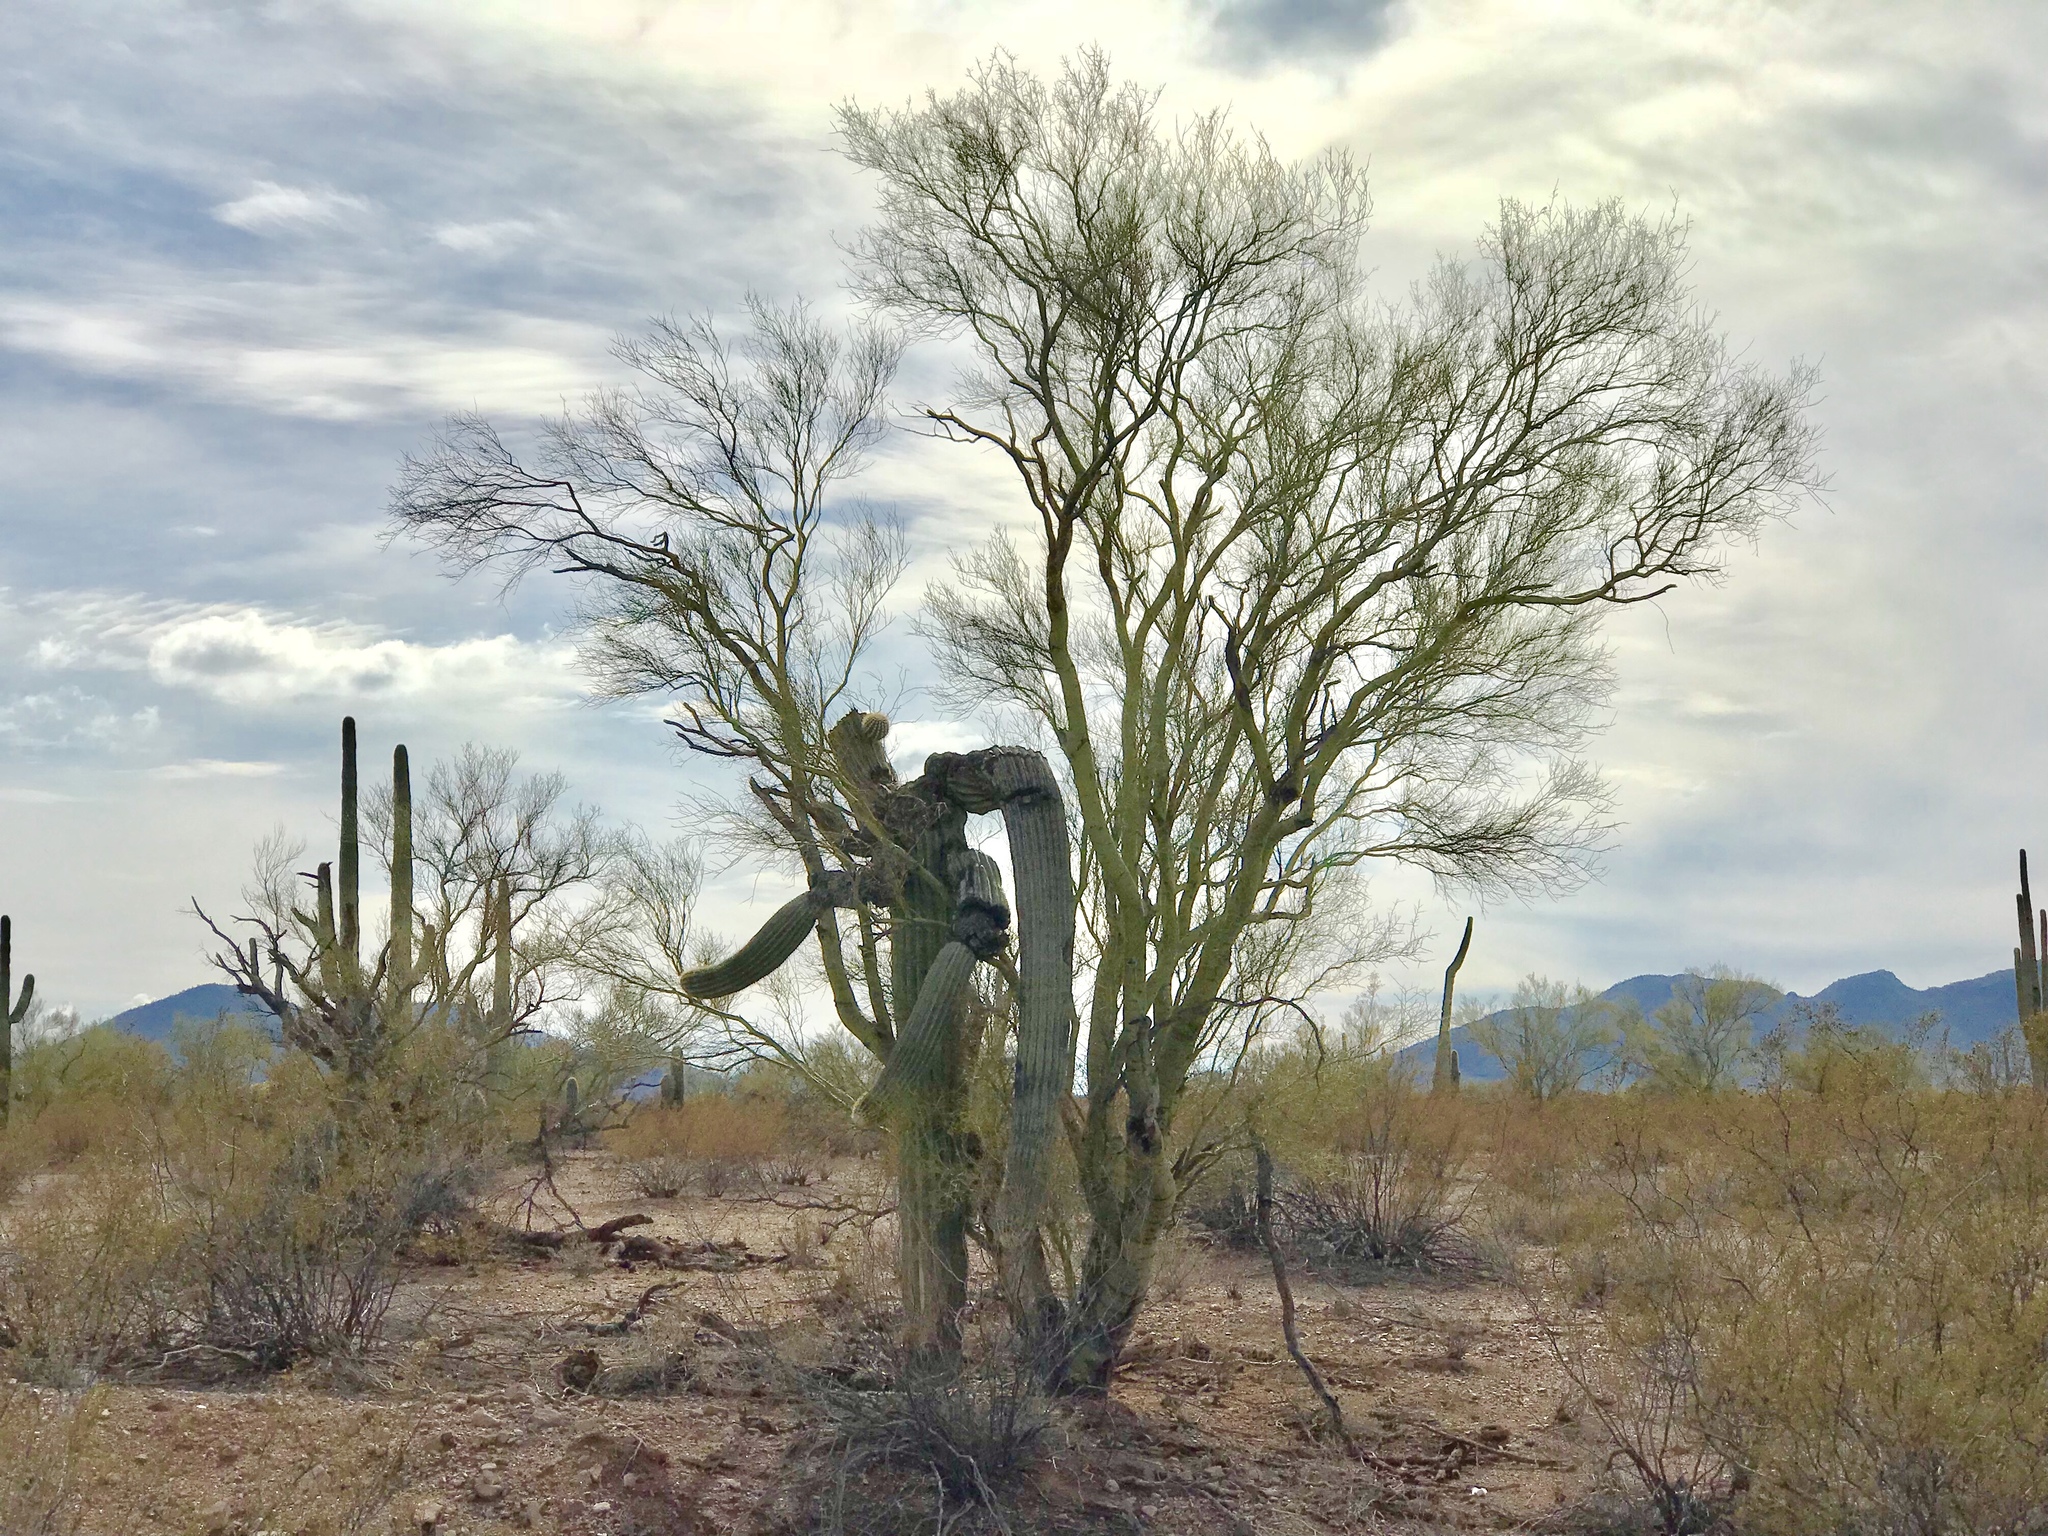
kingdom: Plantae
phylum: Tracheophyta
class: Magnoliopsida
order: Fabales
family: Fabaceae
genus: Parkinsonia
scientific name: Parkinsonia microphylla
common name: Yellow paloverde
